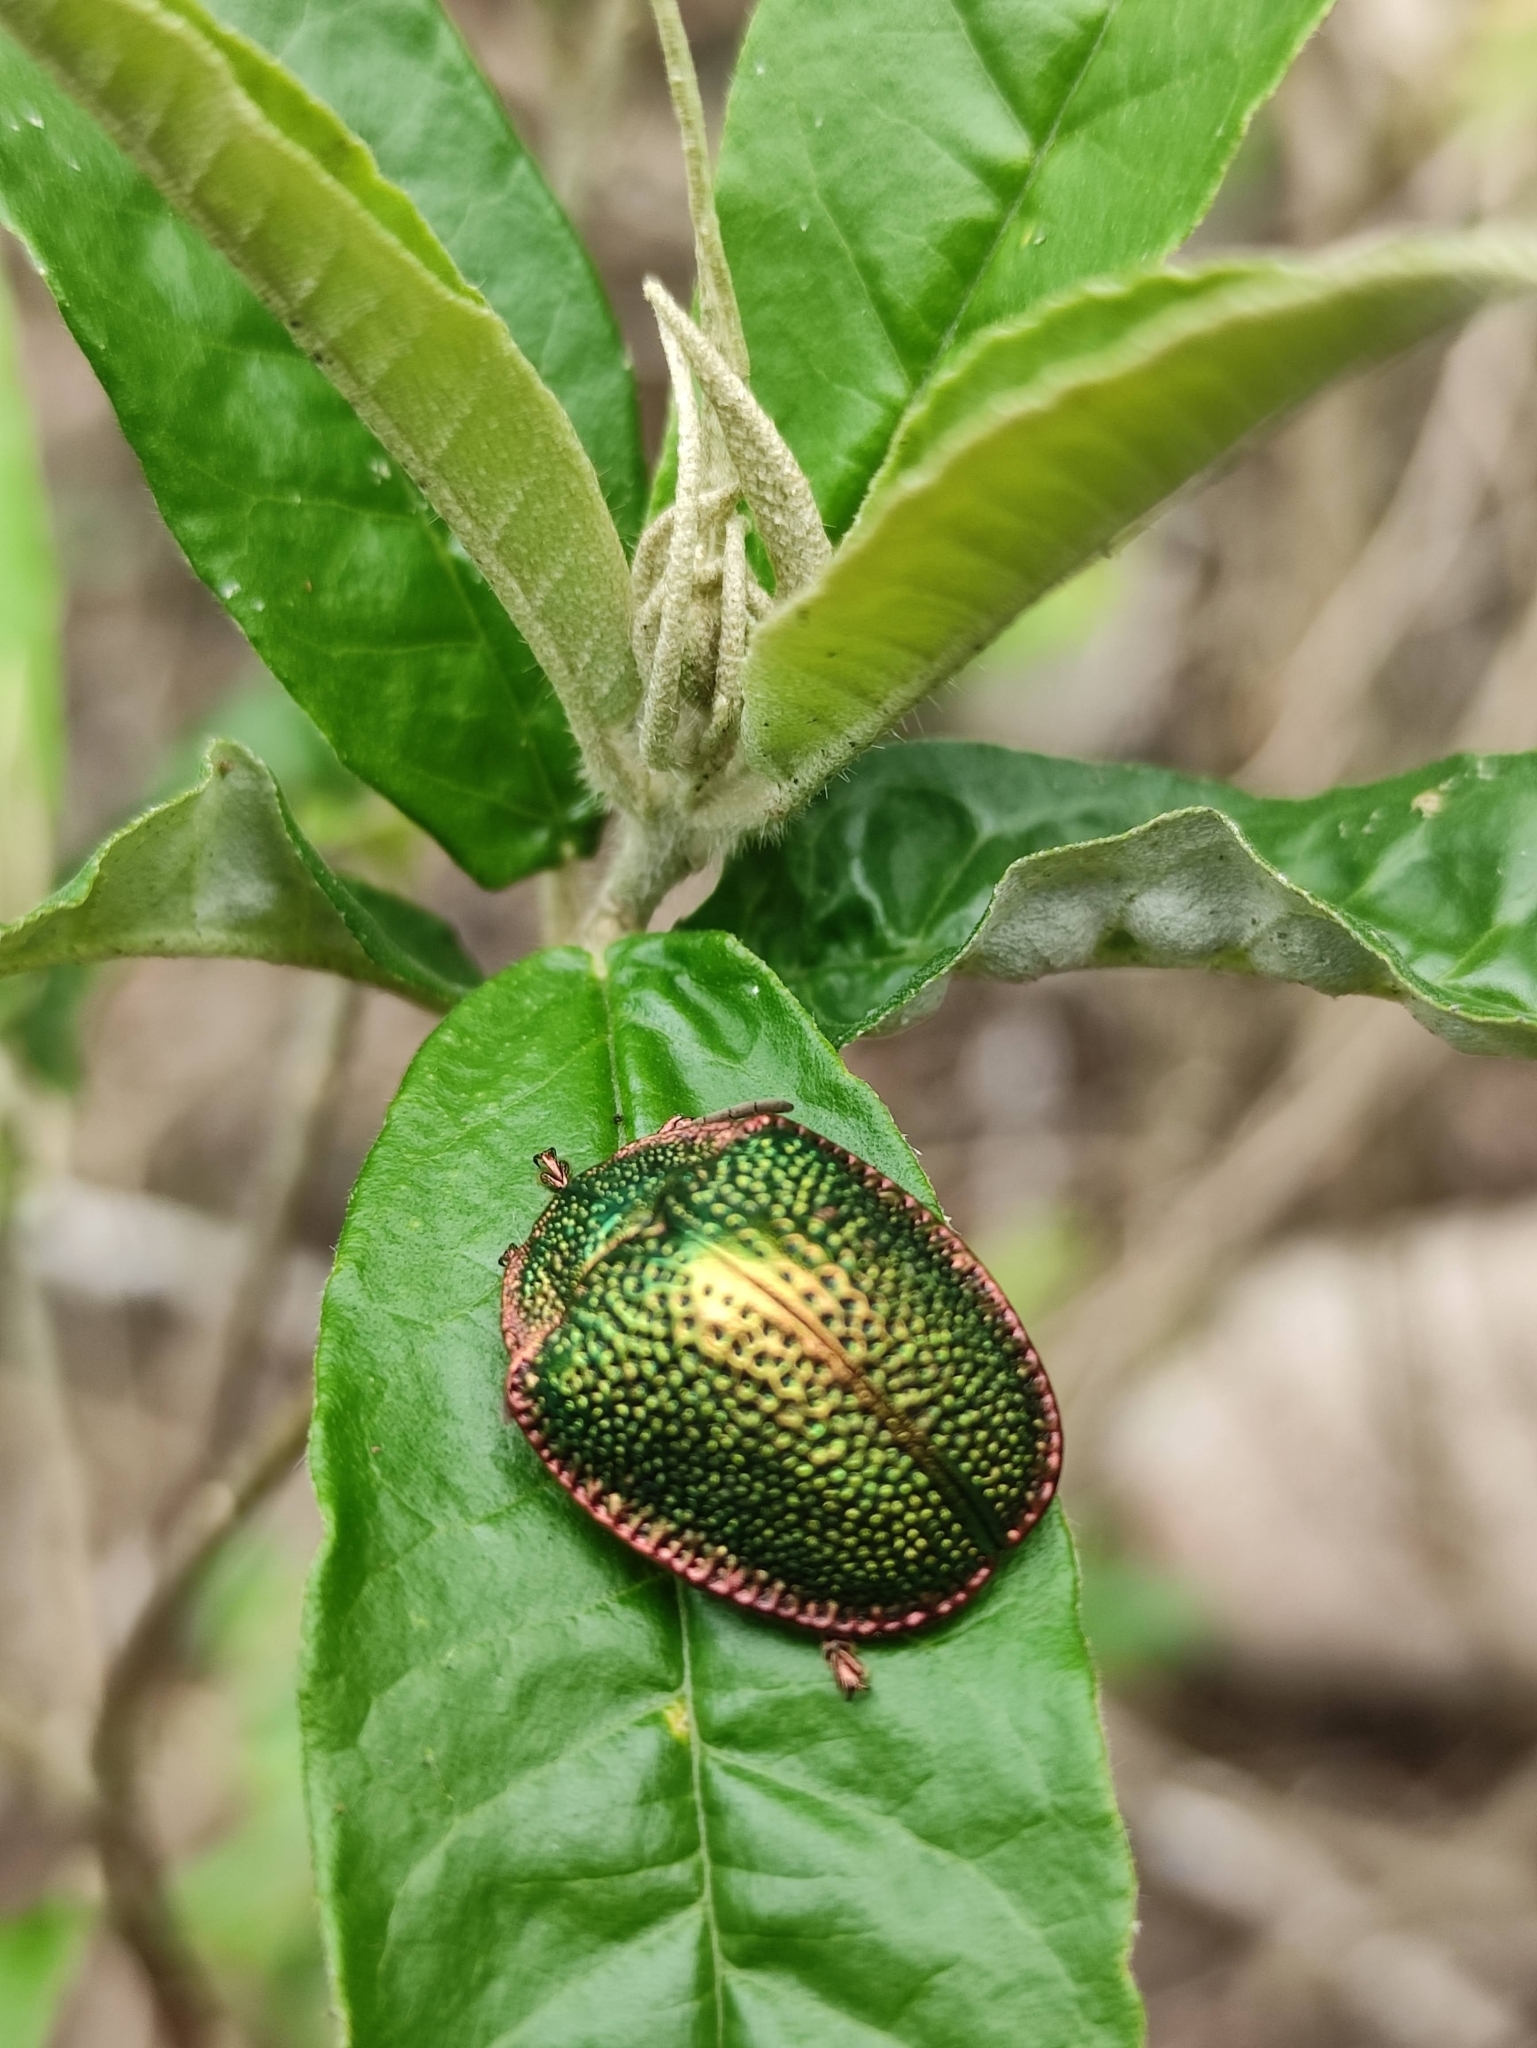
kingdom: Animalia
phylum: Arthropoda
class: Insecta
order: Coleoptera
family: Chrysomelidae
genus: Polychalca
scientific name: Polychalca punctatissima
